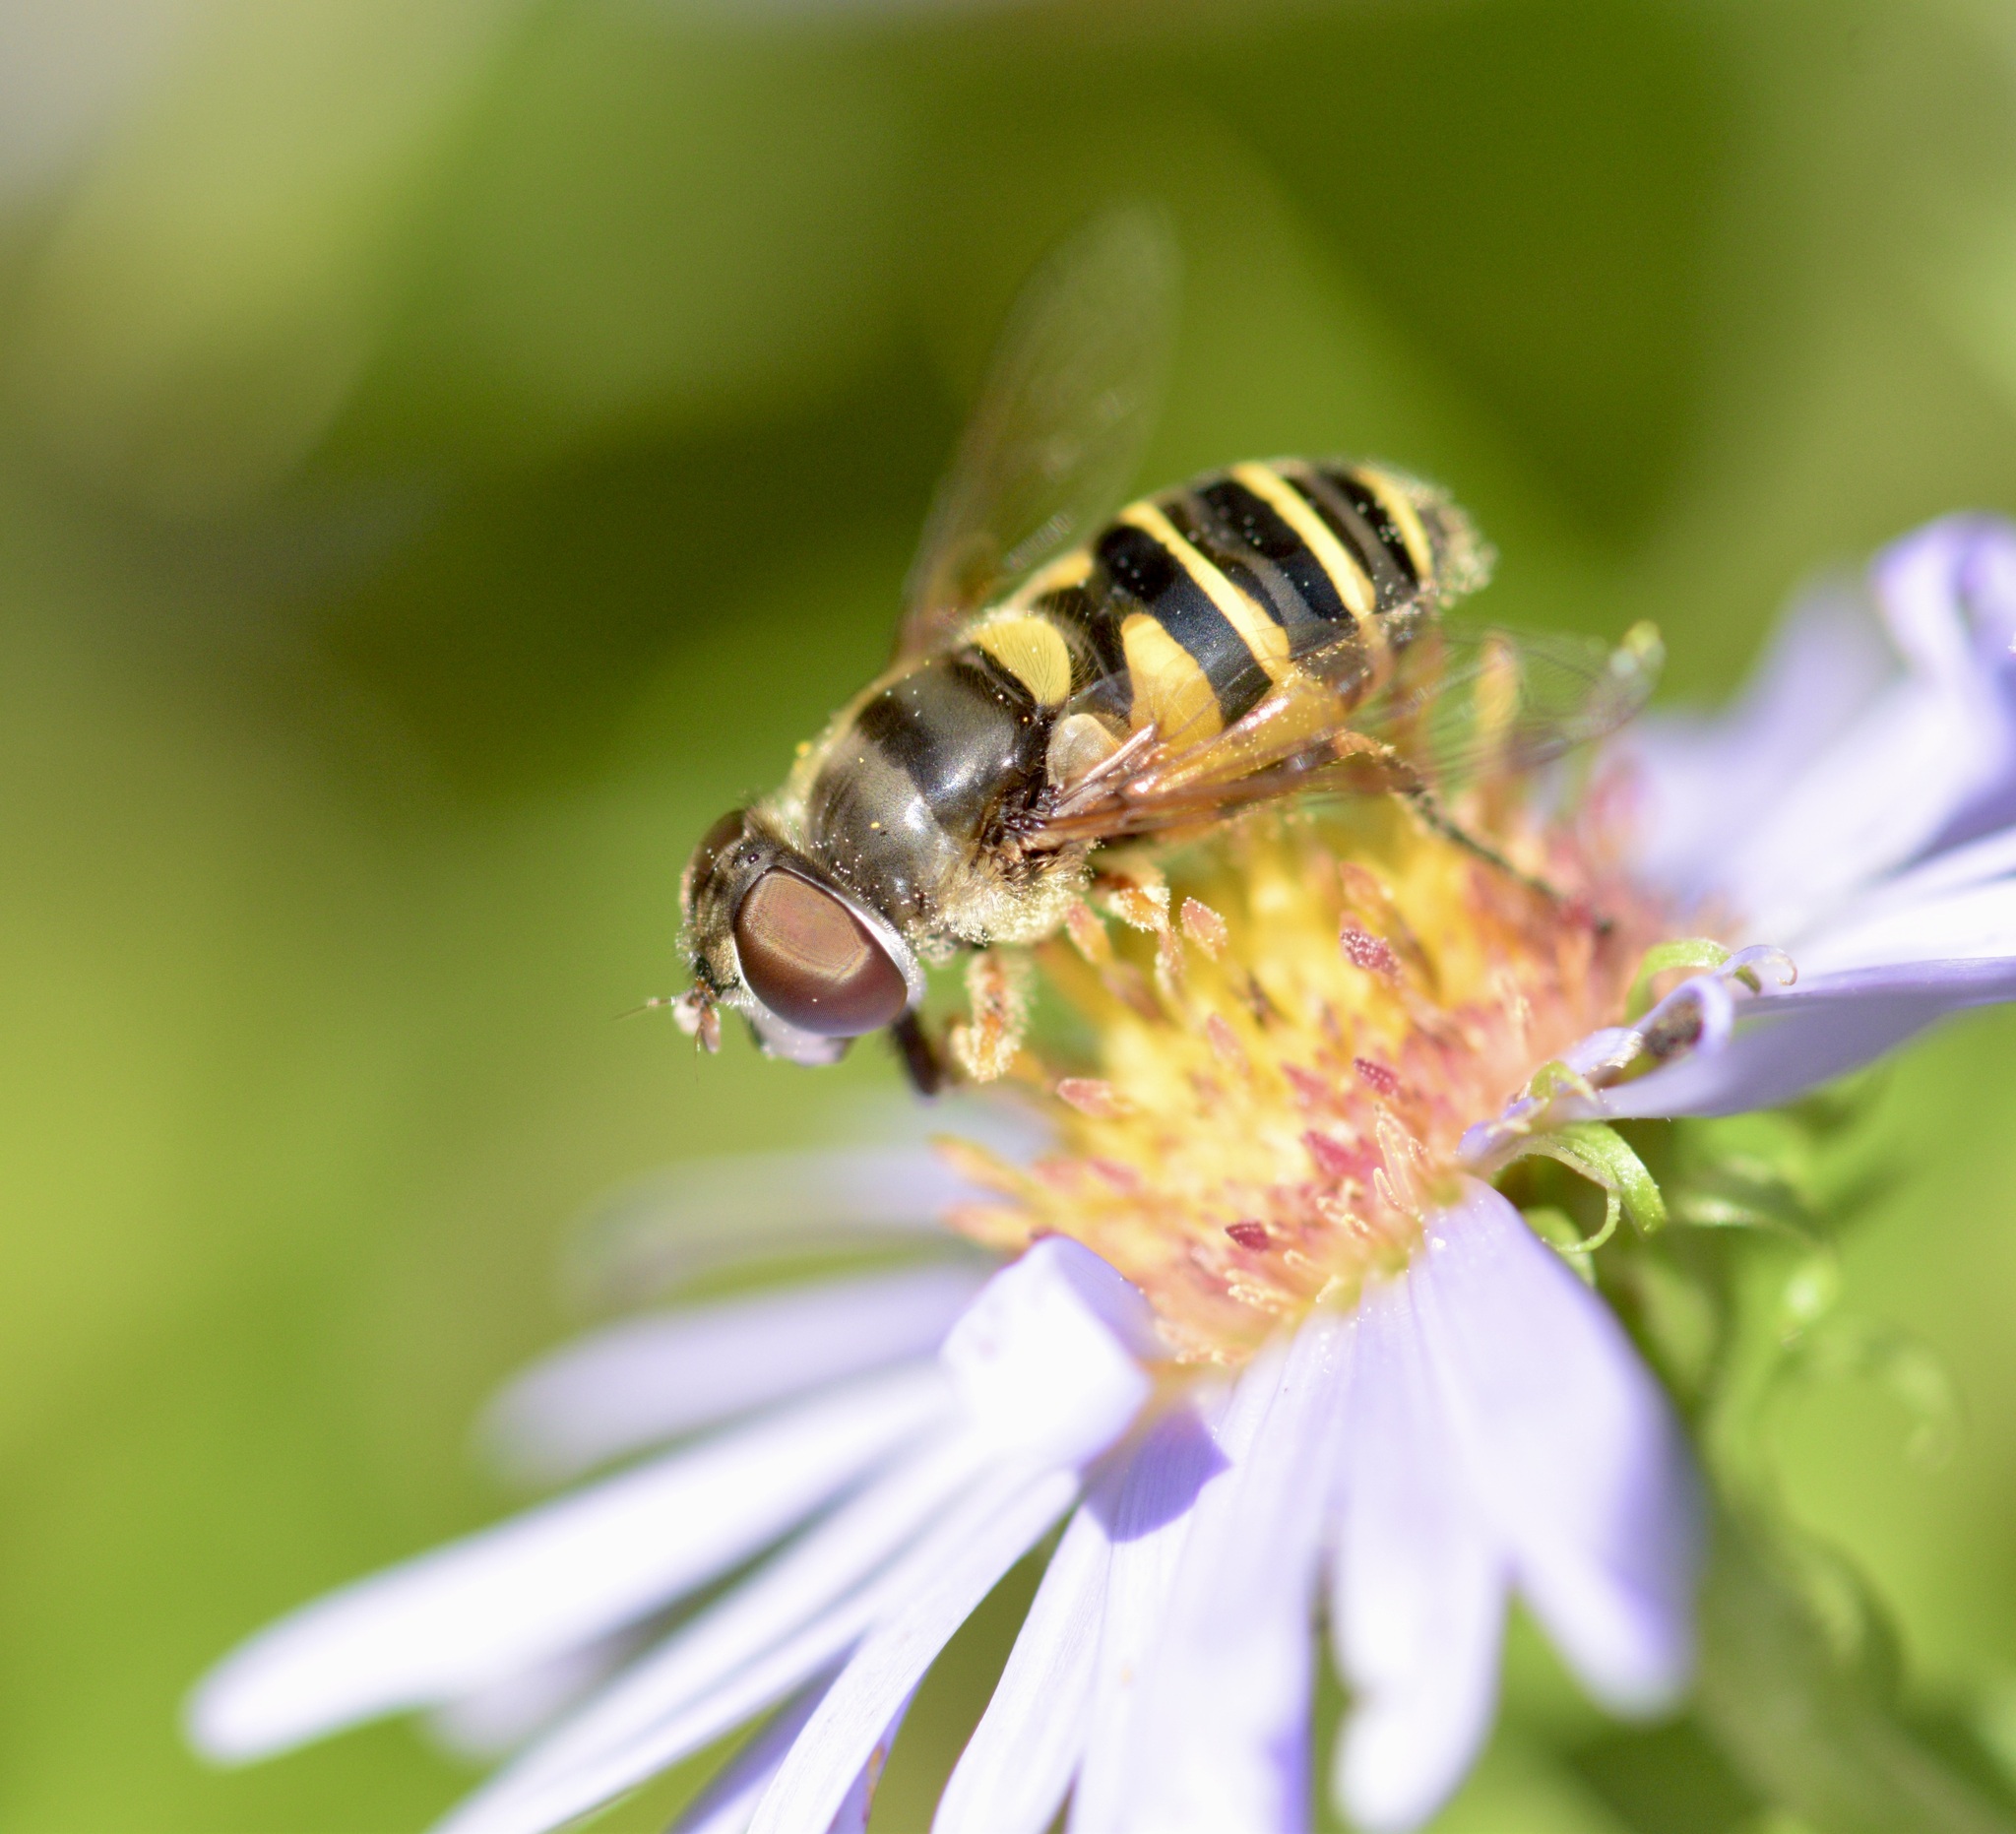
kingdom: Animalia
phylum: Arthropoda
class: Insecta
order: Diptera
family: Syrphidae
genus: Eristalis
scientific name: Eristalis transversa
